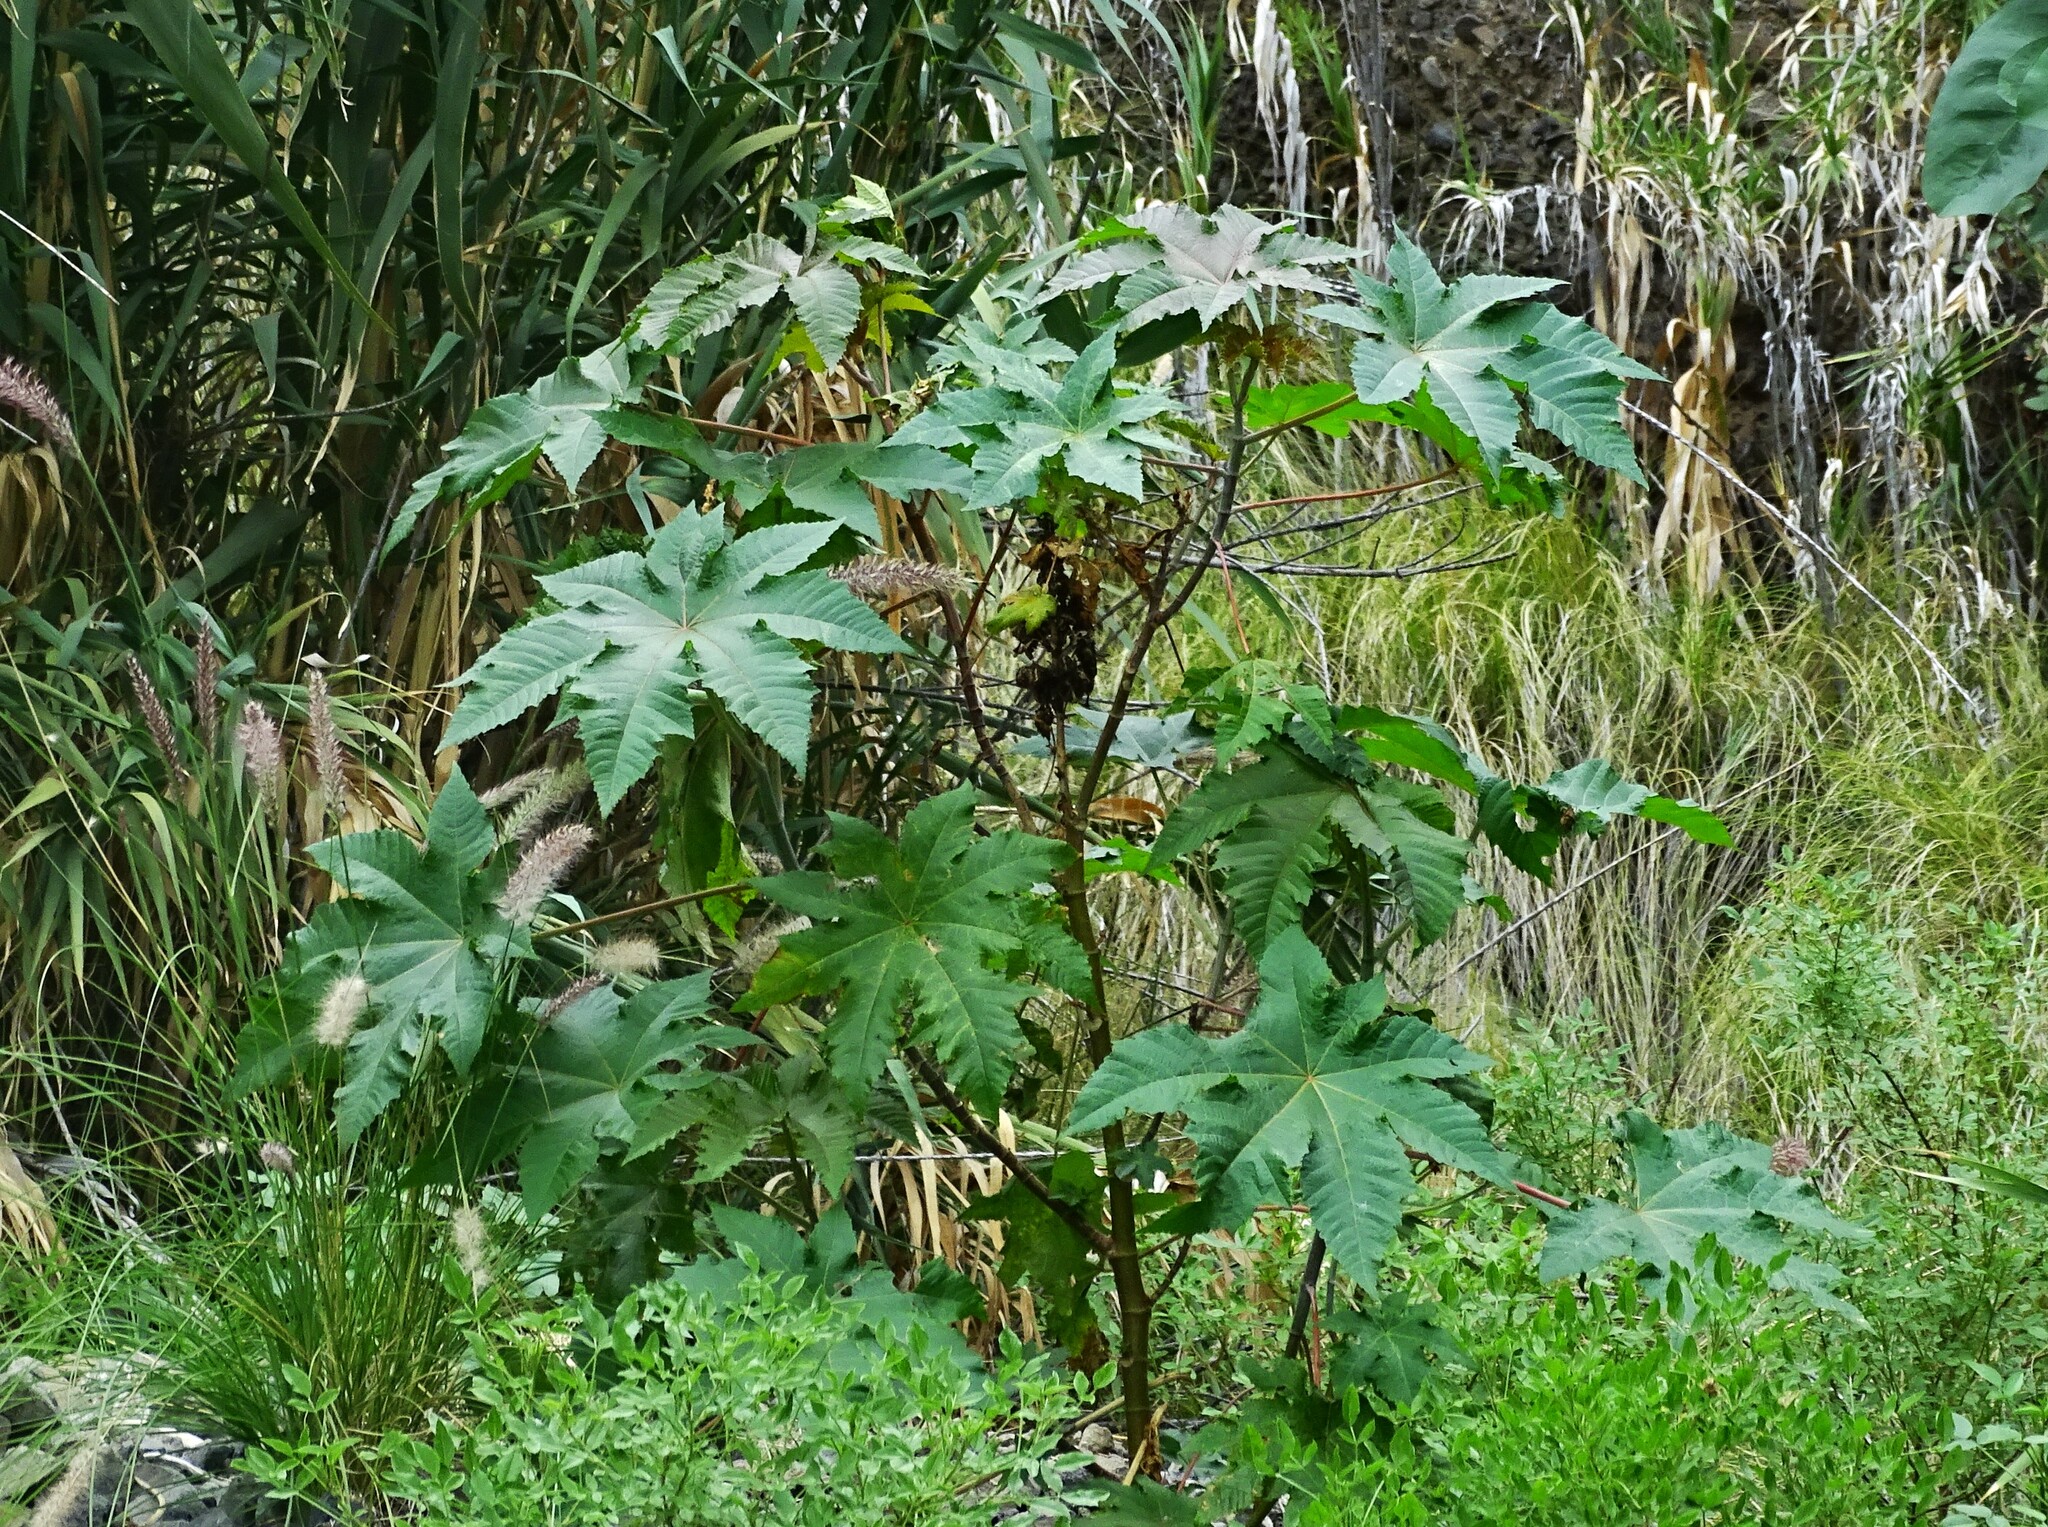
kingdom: Plantae
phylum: Tracheophyta
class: Magnoliopsida
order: Malpighiales
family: Euphorbiaceae
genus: Ricinus
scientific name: Ricinus communis
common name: Castor-oil-plant
